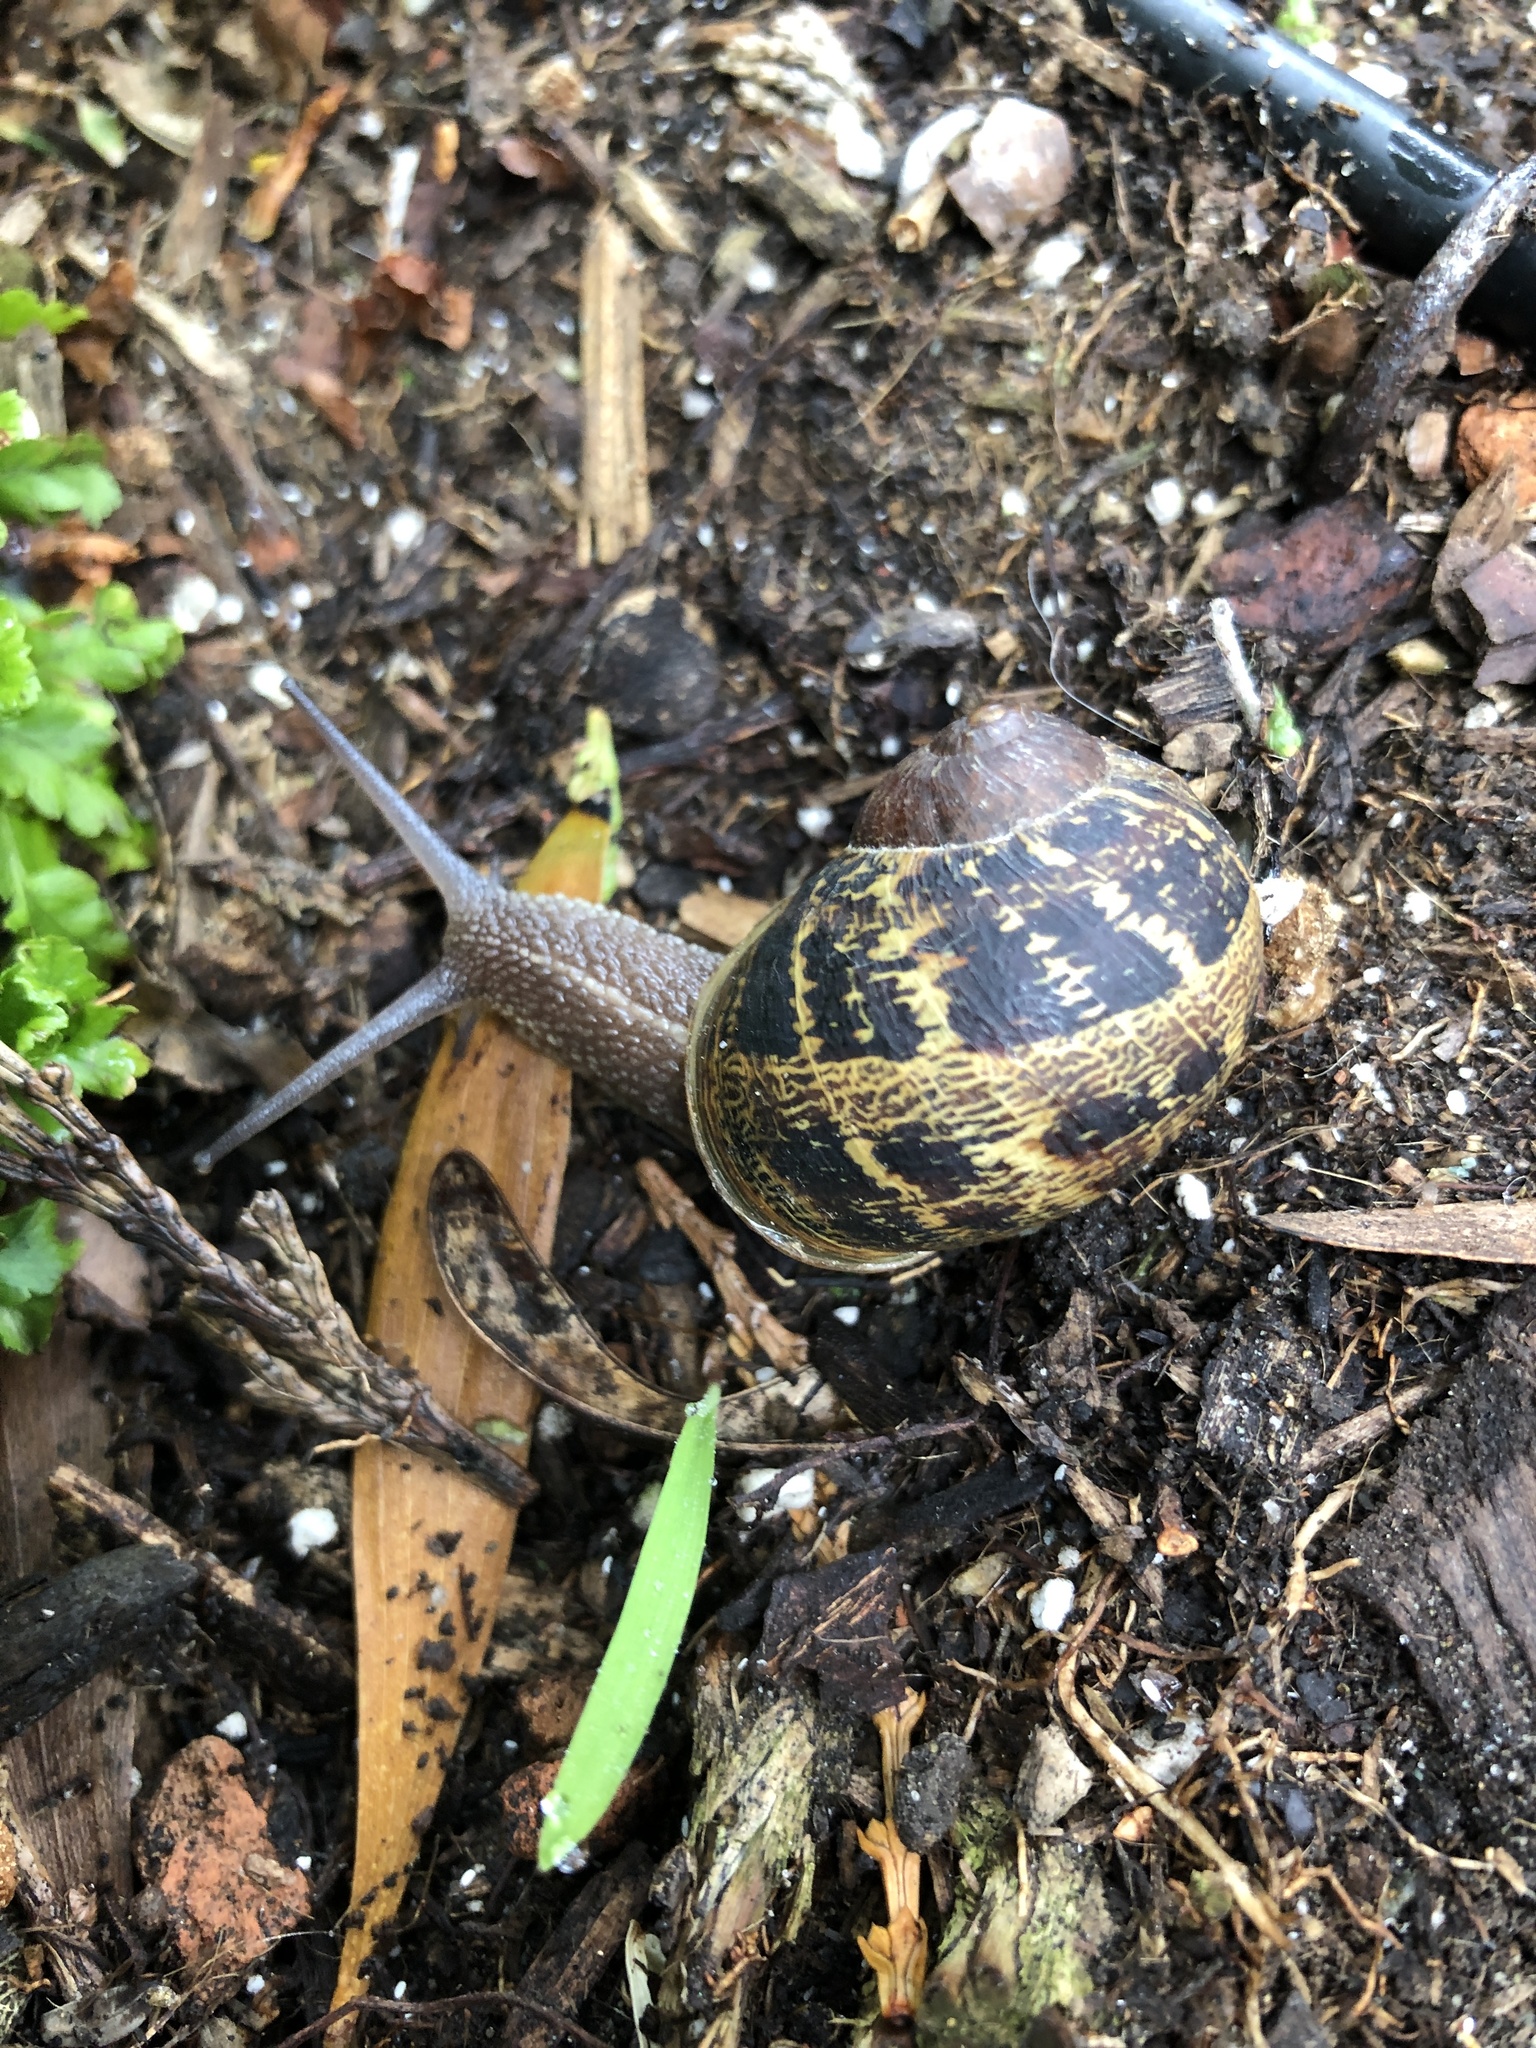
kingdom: Animalia
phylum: Mollusca
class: Gastropoda
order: Stylommatophora
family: Helicidae
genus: Cornu
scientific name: Cornu aspersum
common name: Brown garden snail
